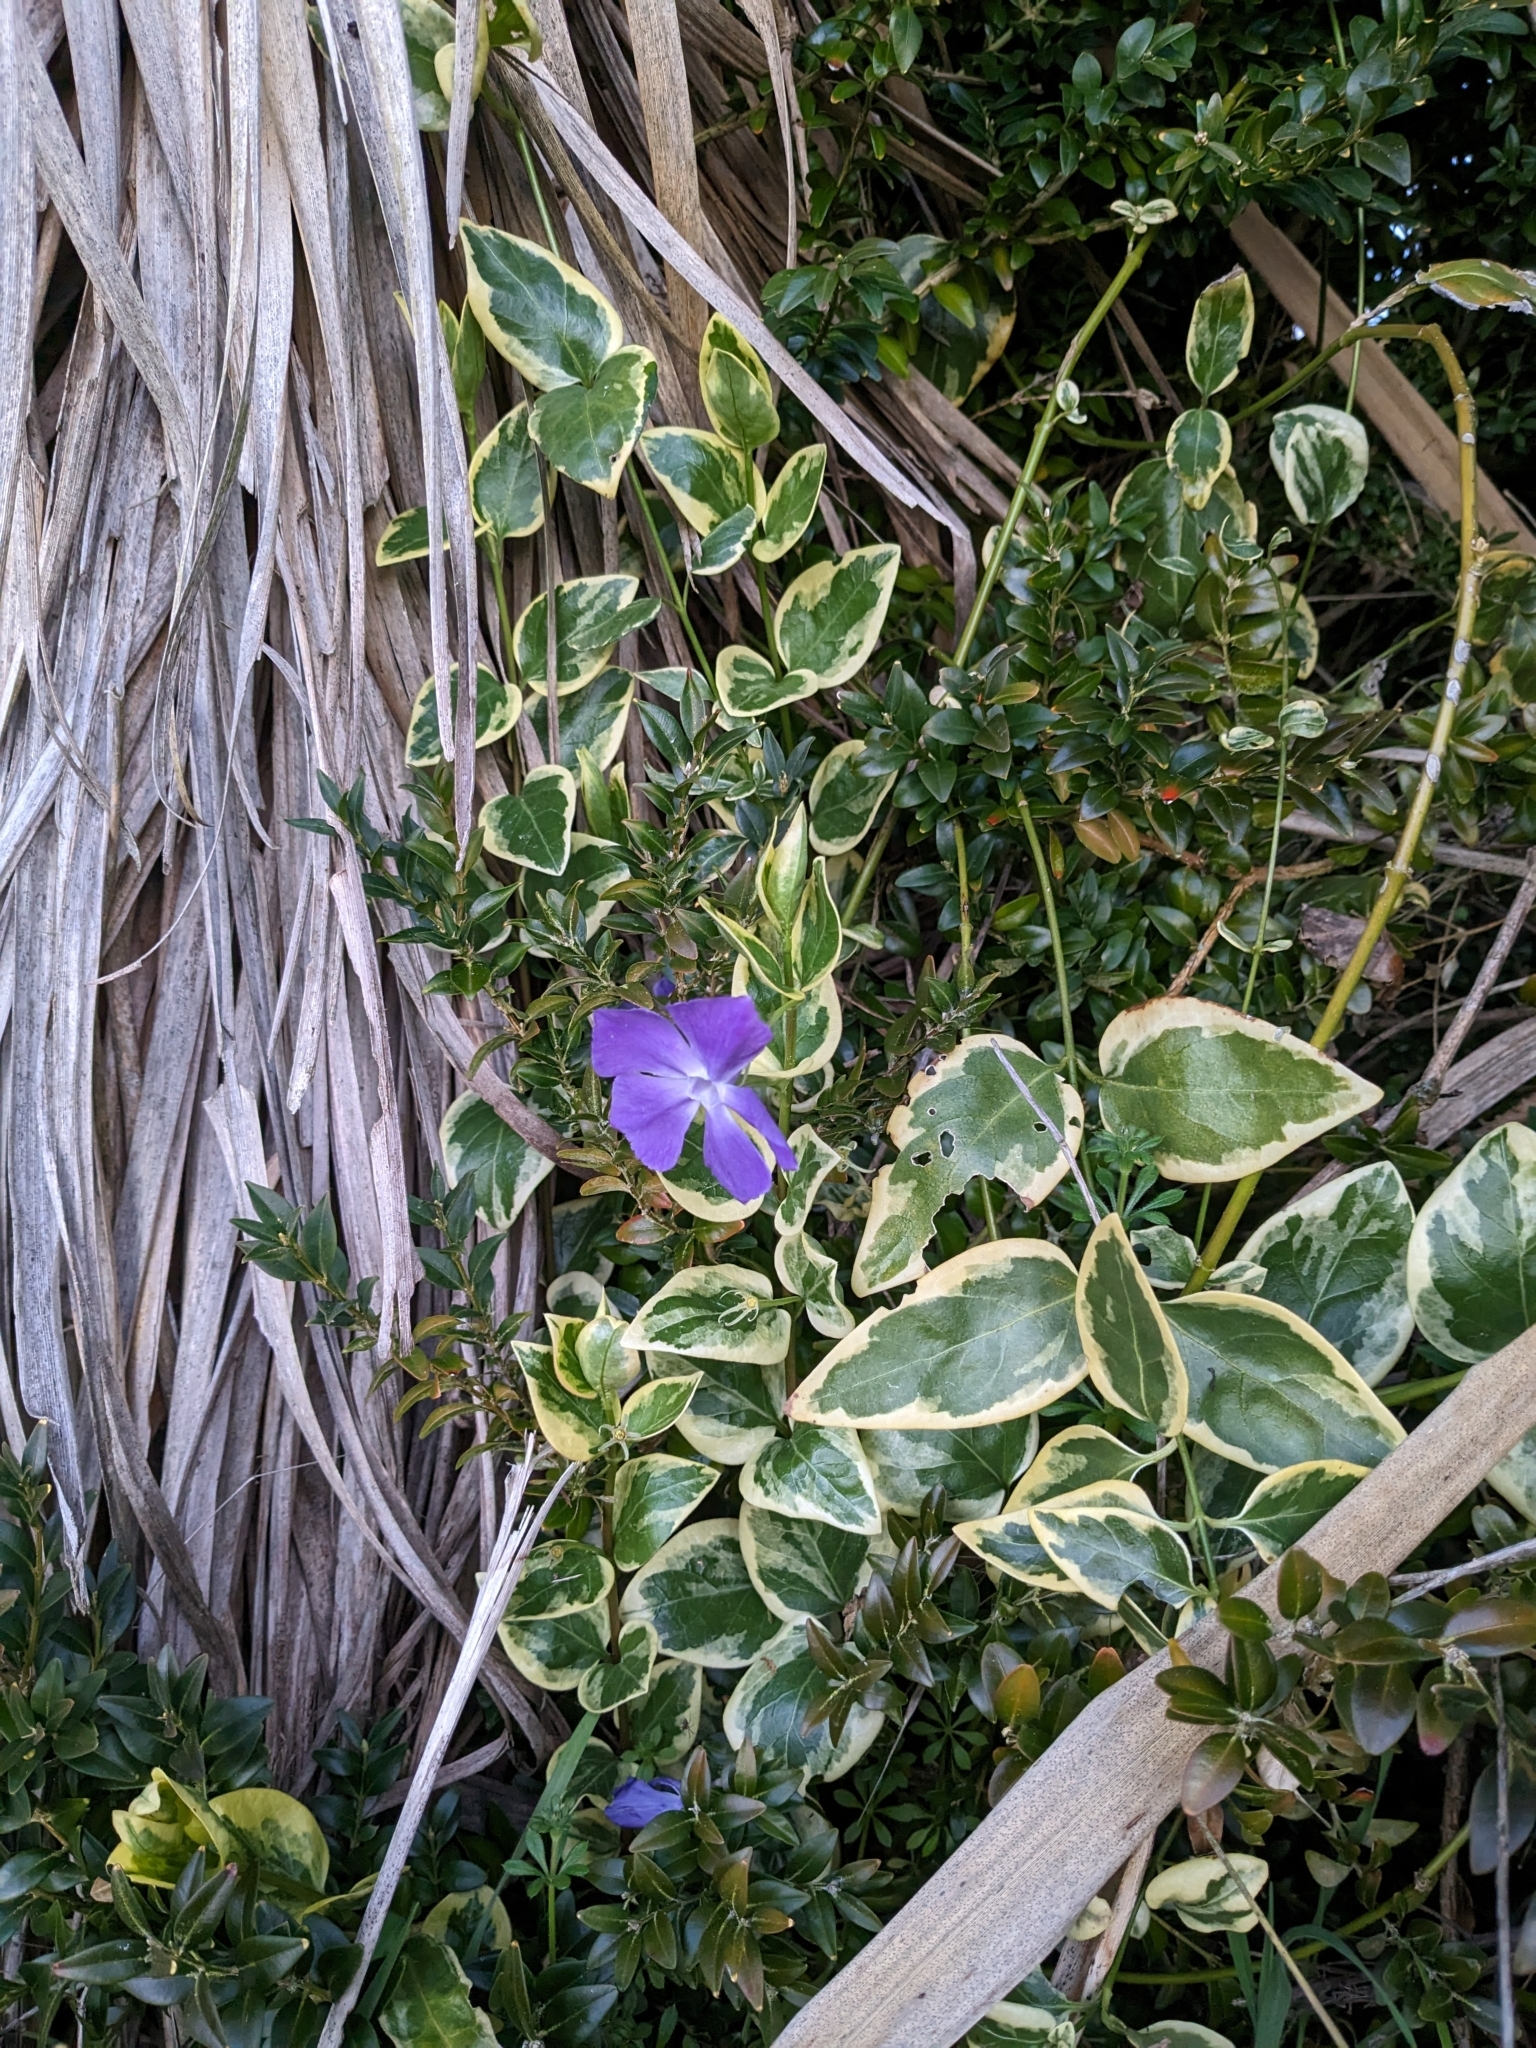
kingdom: Plantae
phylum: Tracheophyta
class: Magnoliopsida
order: Gentianales
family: Apocynaceae
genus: Vinca
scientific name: Vinca major
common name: Greater periwinkle
